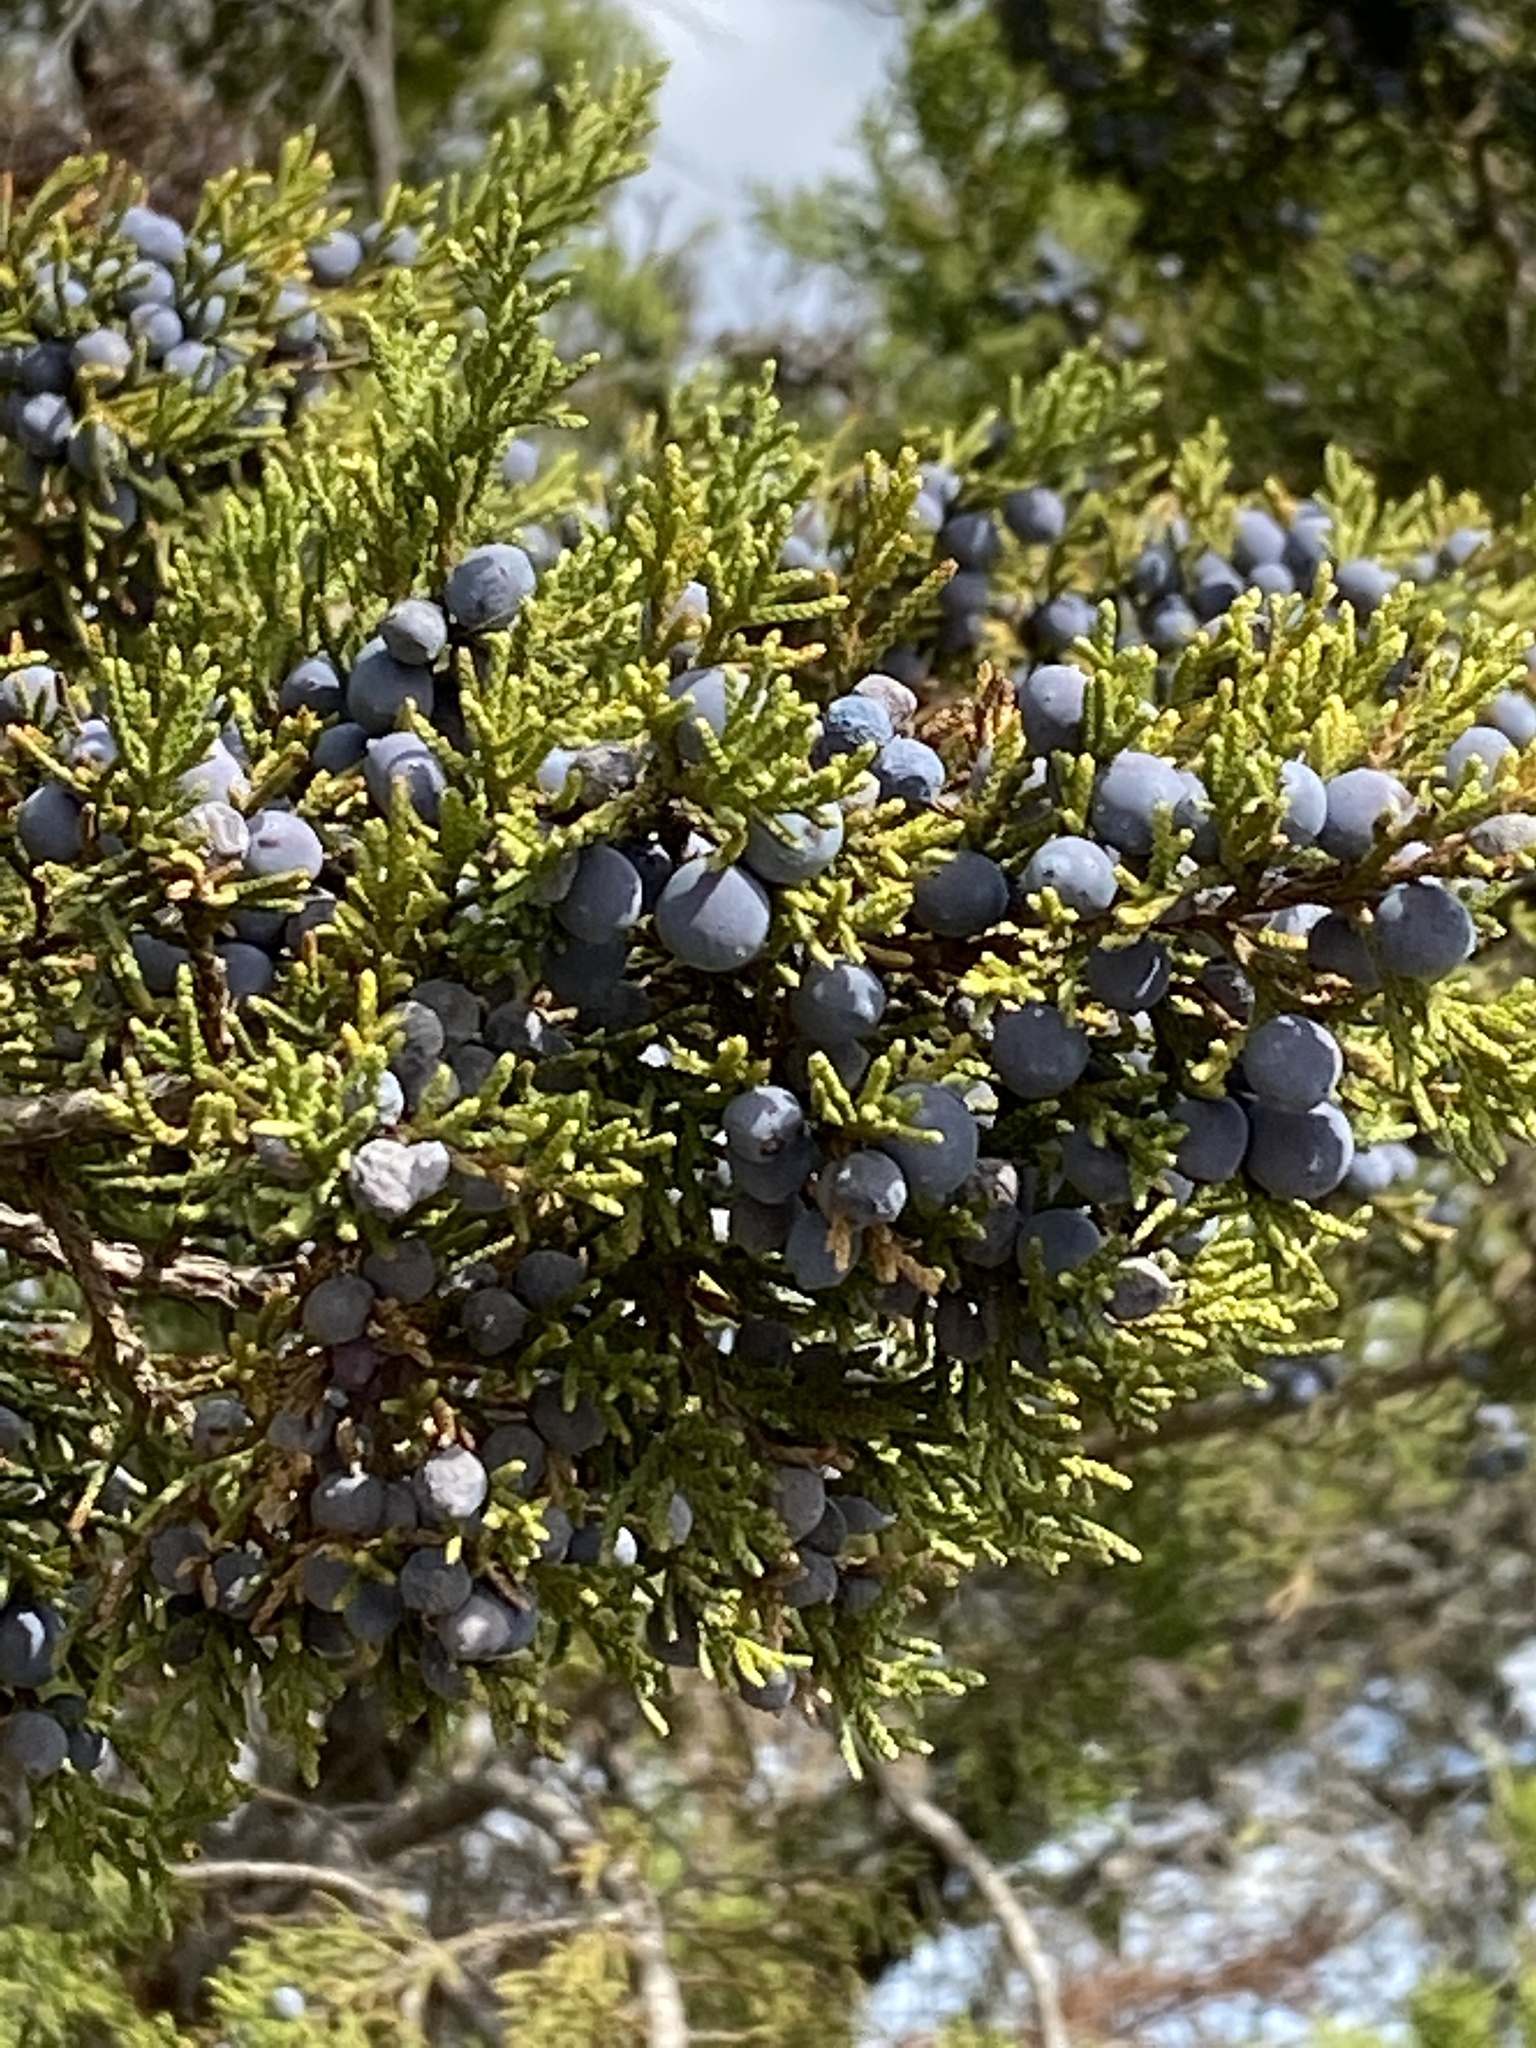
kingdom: Plantae
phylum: Tracheophyta
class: Pinopsida
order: Pinales
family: Cupressaceae
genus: Juniperus
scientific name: Juniperus ashei
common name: Mexican juniper
